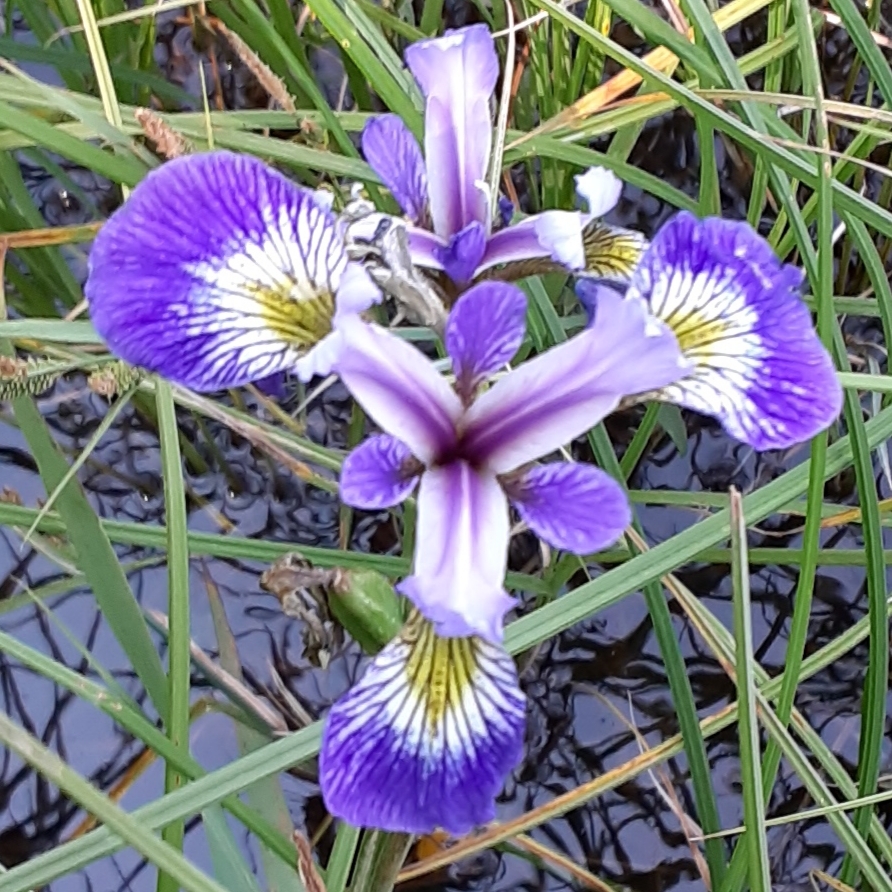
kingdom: Plantae
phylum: Tracheophyta
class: Liliopsida
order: Asparagales
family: Iridaceae
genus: Iris
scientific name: Iris versicolor
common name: Purple iris
